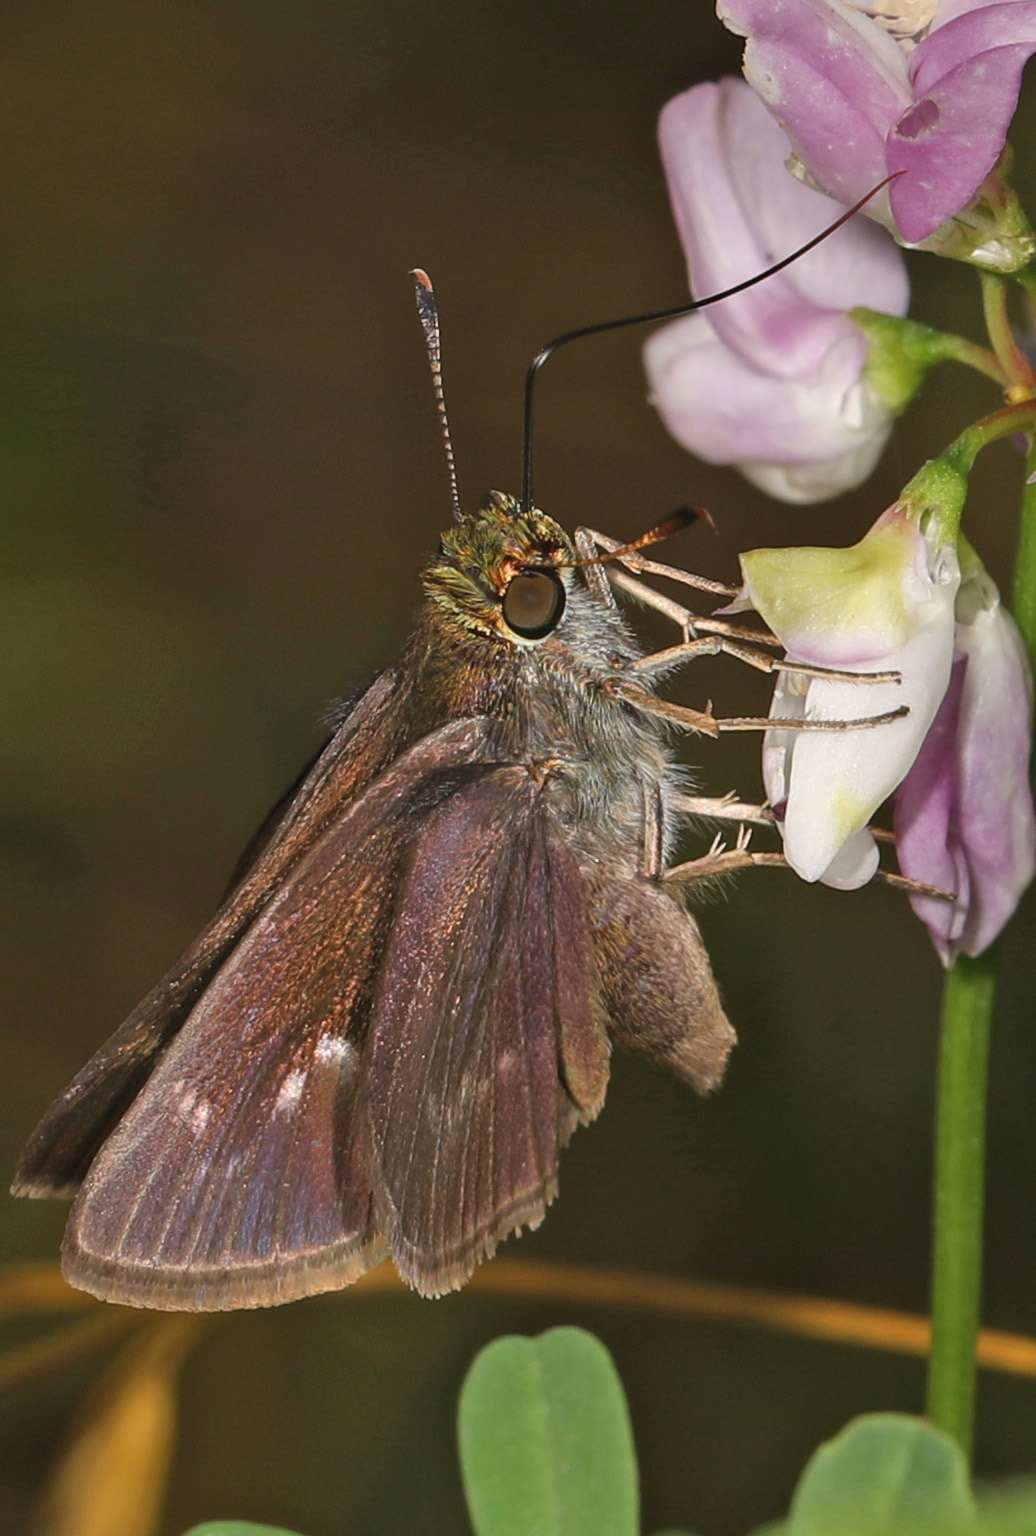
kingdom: Animalia
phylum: Arthropoda
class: Insecta
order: Lepidoptera
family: Hesperiidae
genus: Vernia
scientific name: Vernia verna
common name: Little glassywing
